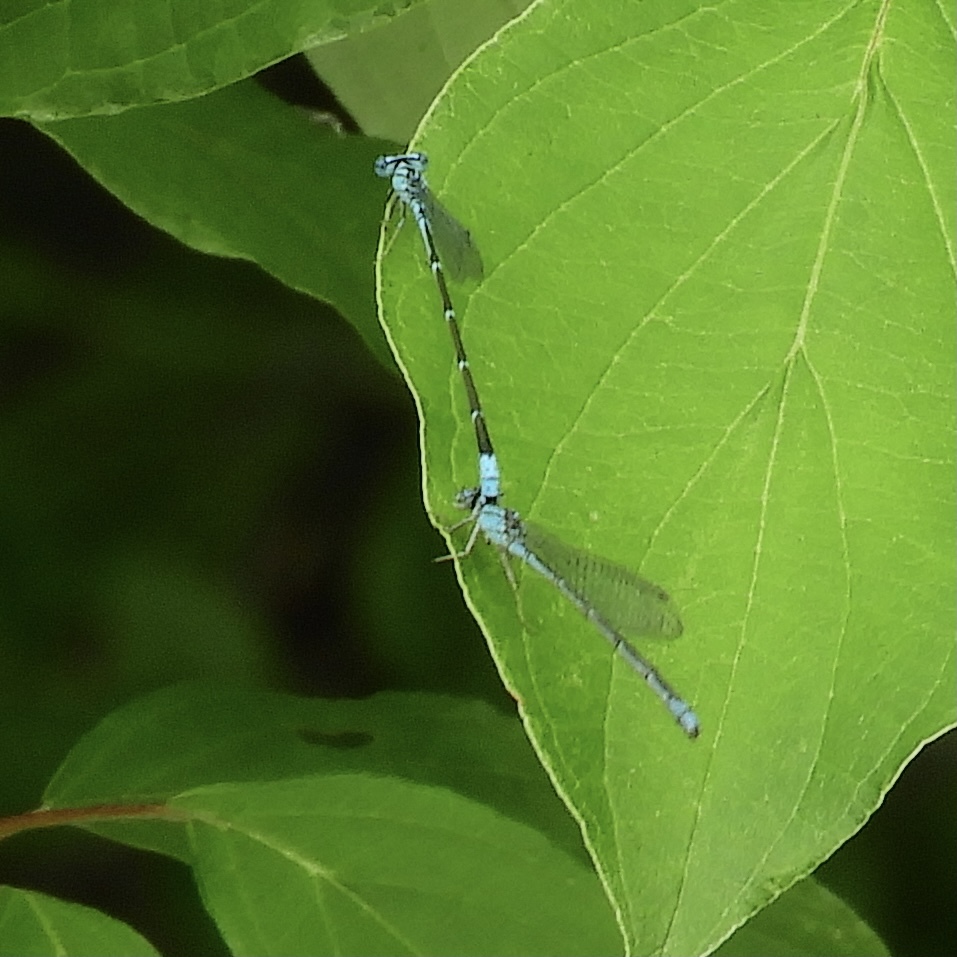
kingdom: Animalia
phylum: Arthropoda
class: Insecta
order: Odonata
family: Coenagrionidae
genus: Enallagma
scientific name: Enallagma traviatum
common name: Slender bluet
